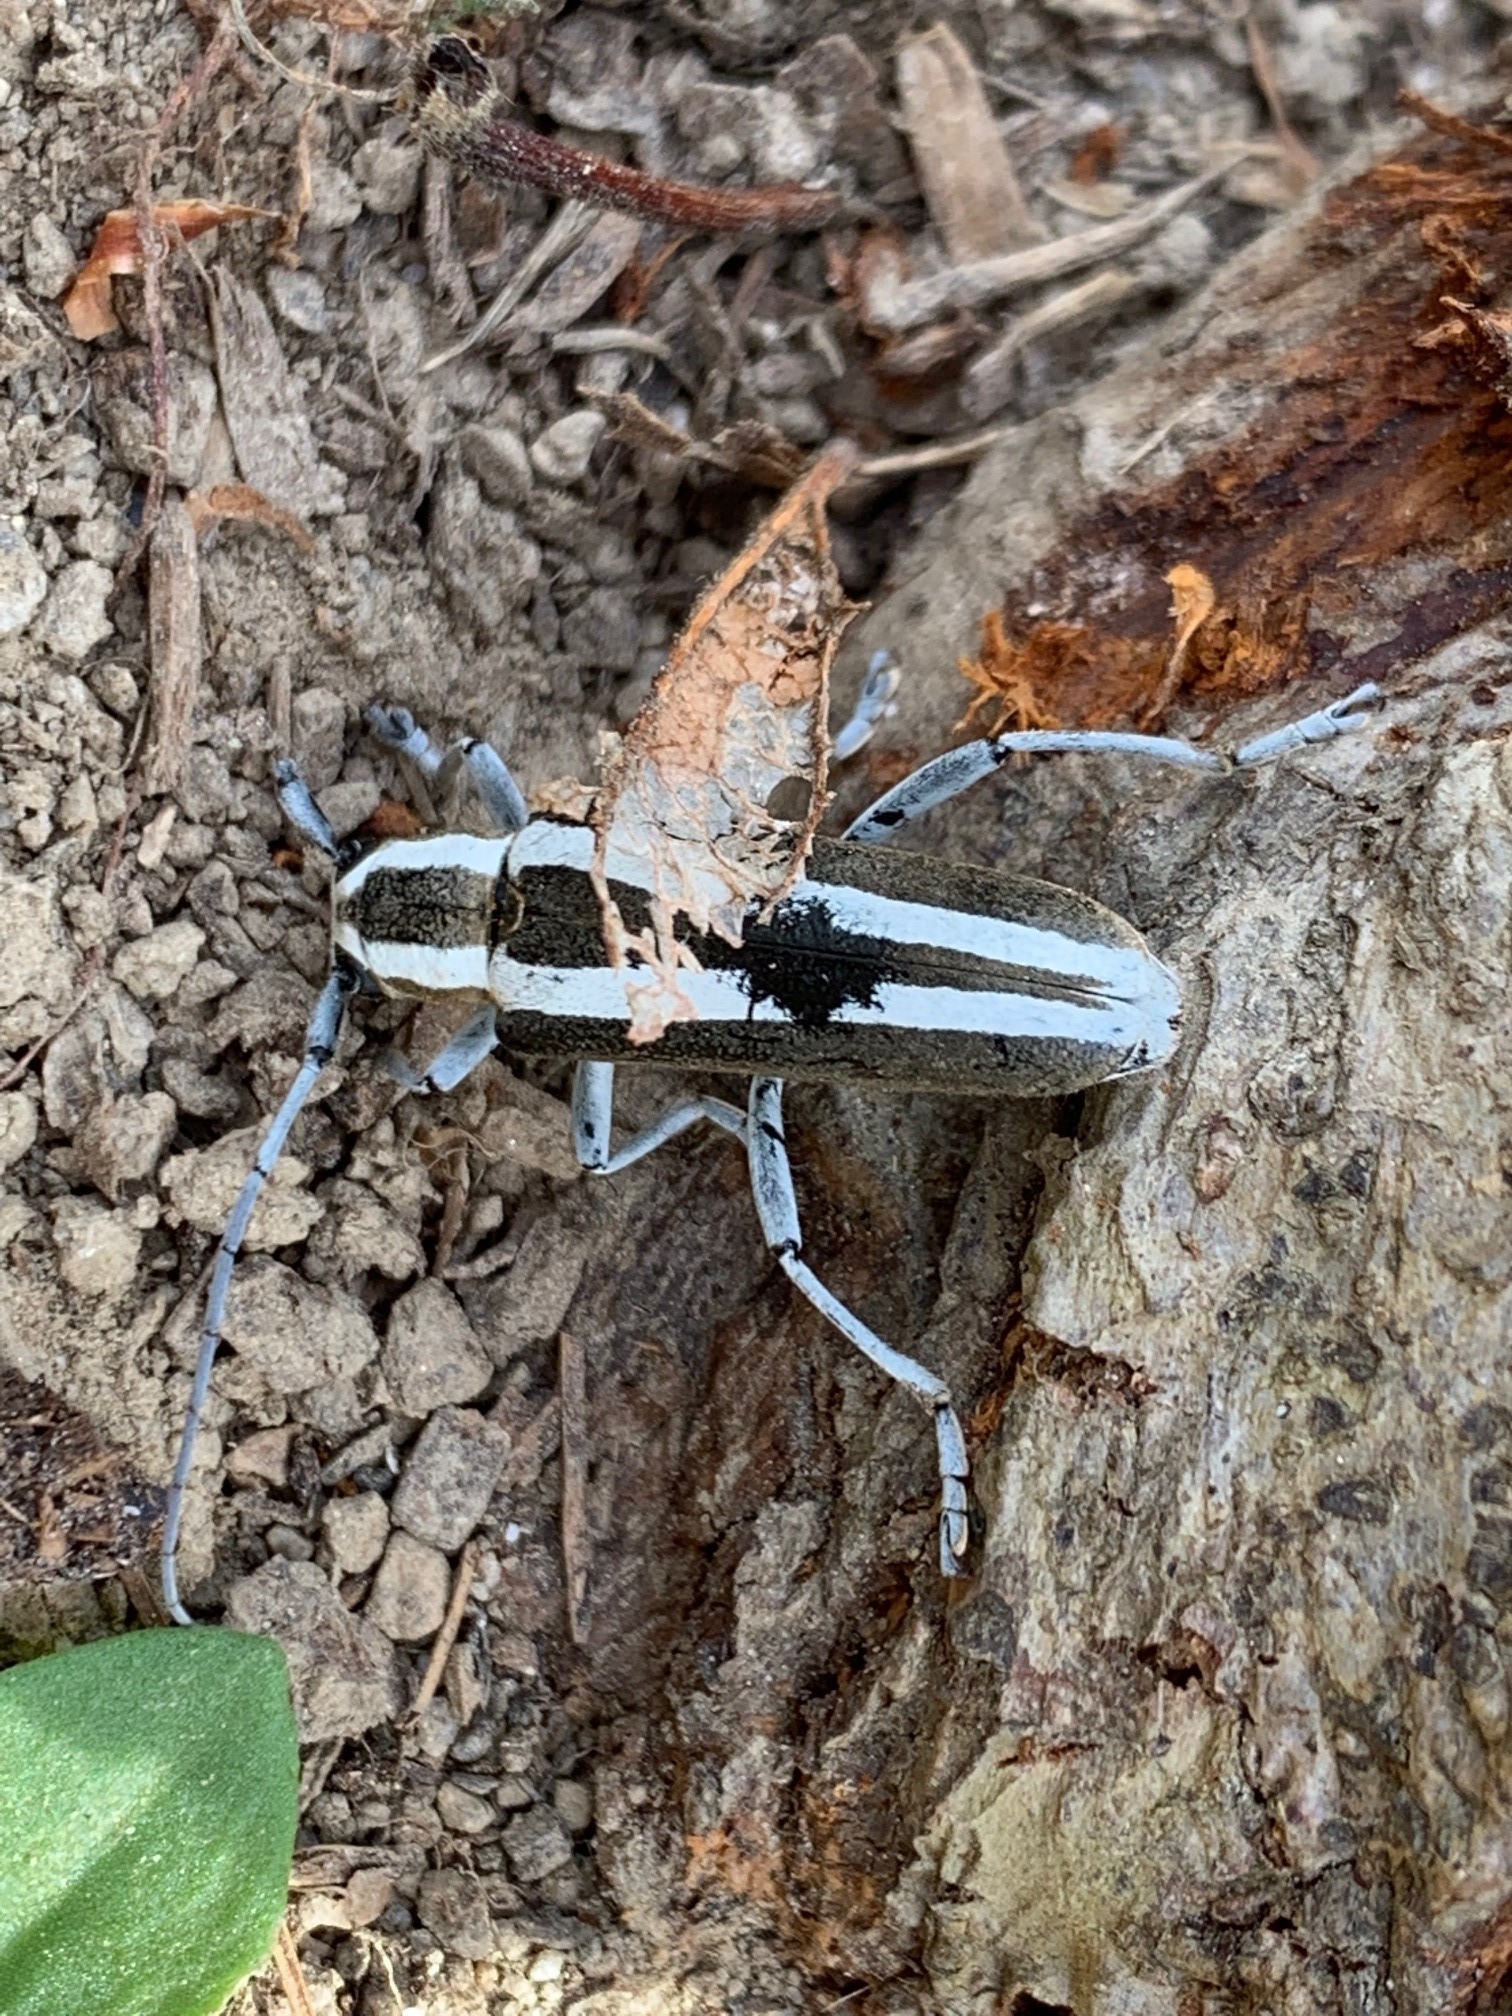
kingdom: Animalia
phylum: Arthropoda
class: Insecta
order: Coleoptera
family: Cerambycidae
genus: Saperda
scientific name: Saperda candida
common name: Round-headed borer
